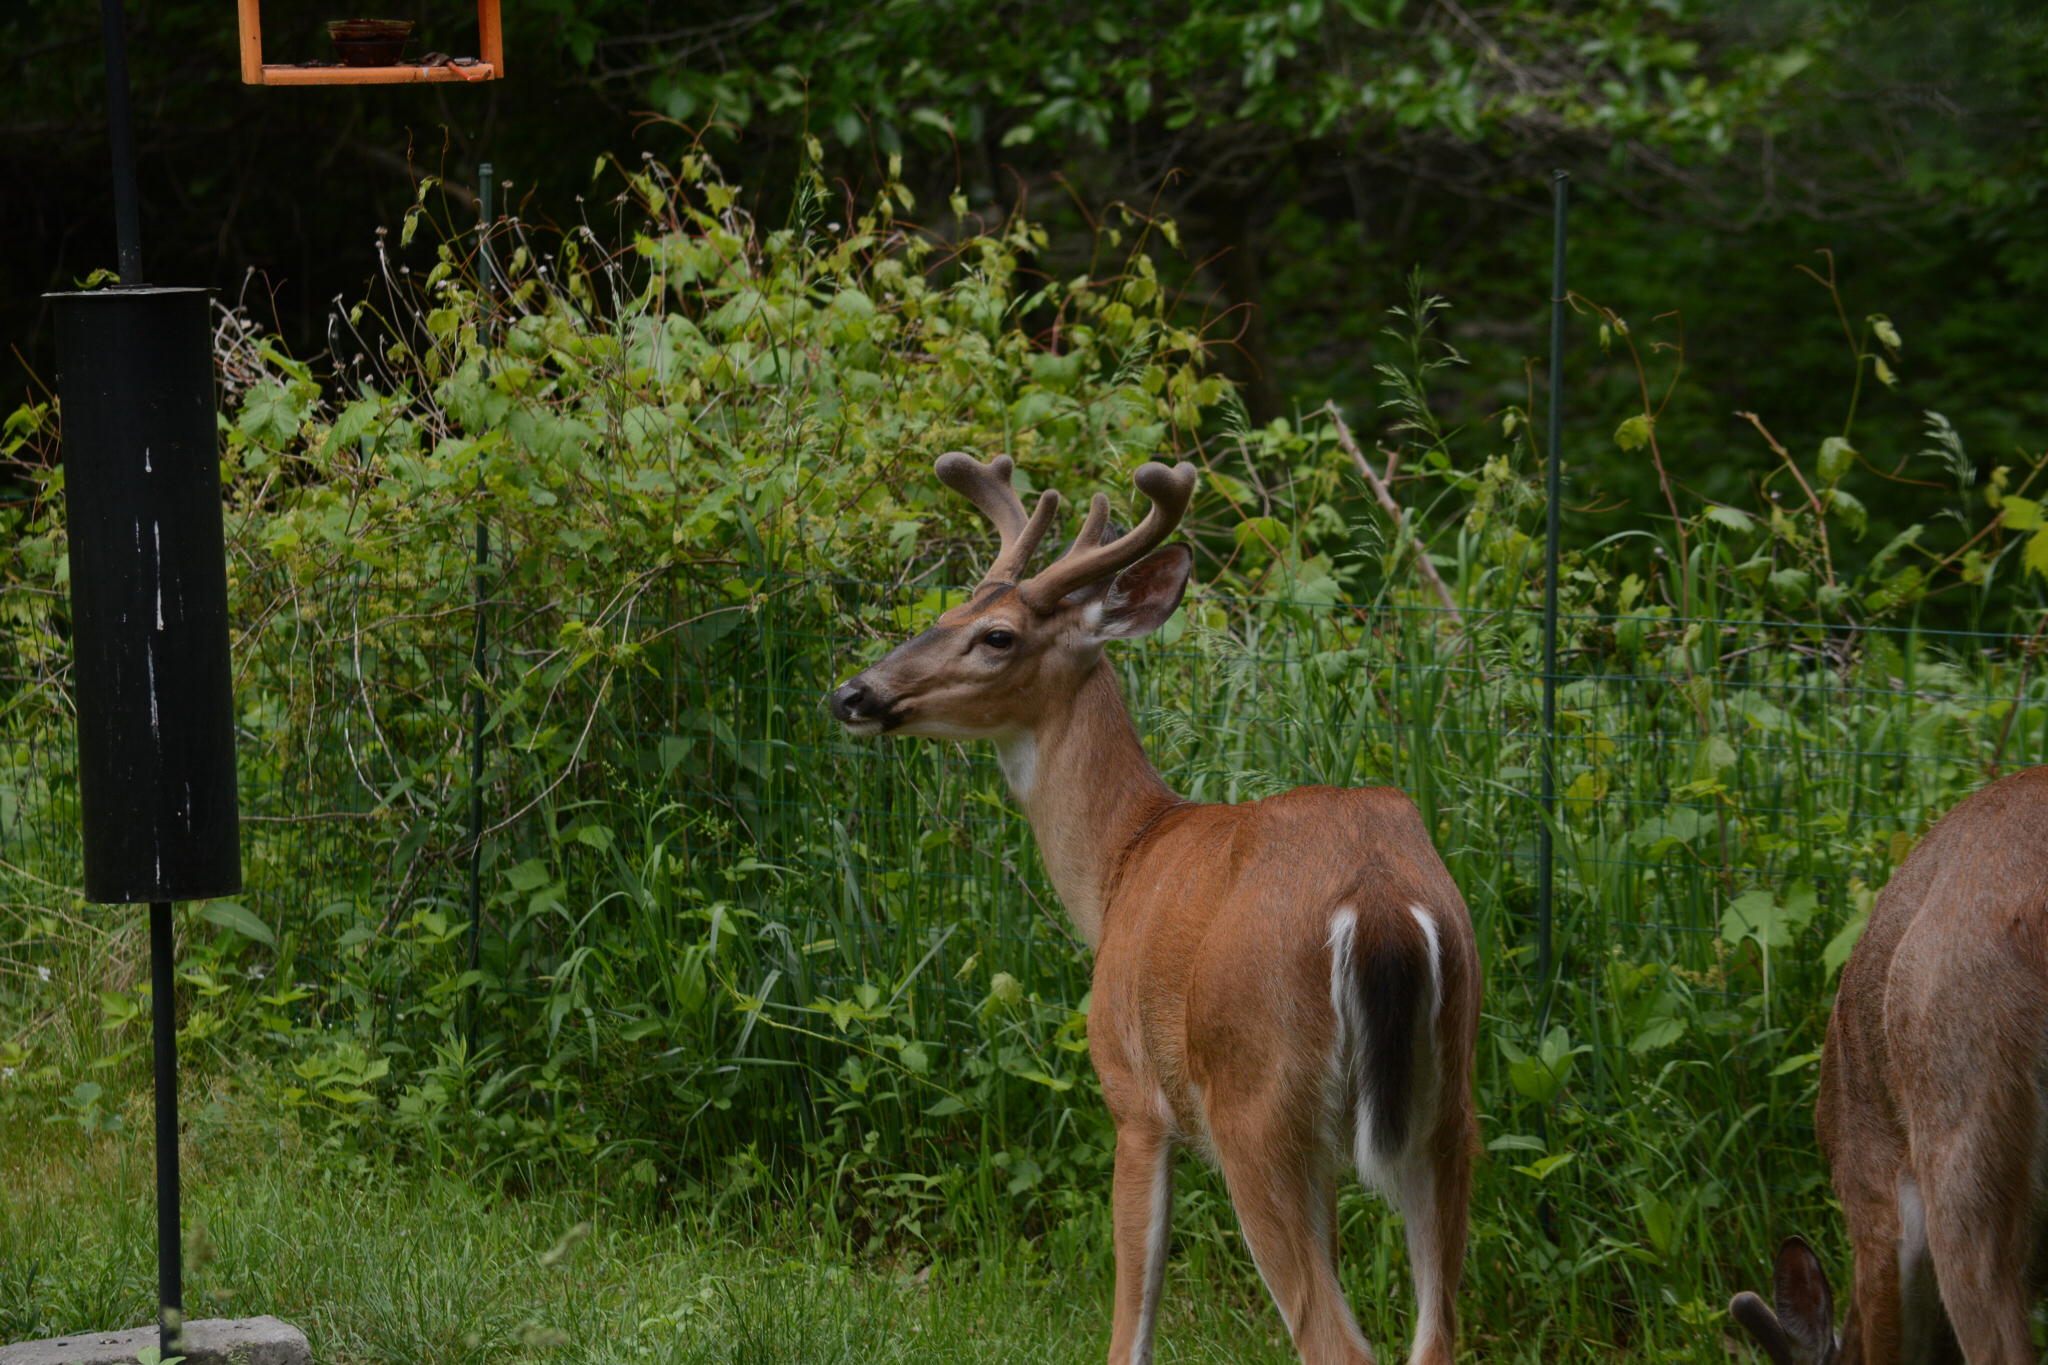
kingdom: Animalia
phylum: Chordata
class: Mammalia
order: Artiodactyla
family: Cervidae
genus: Odocoileus
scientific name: Odocoileus virginianus
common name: White-tailed deer
